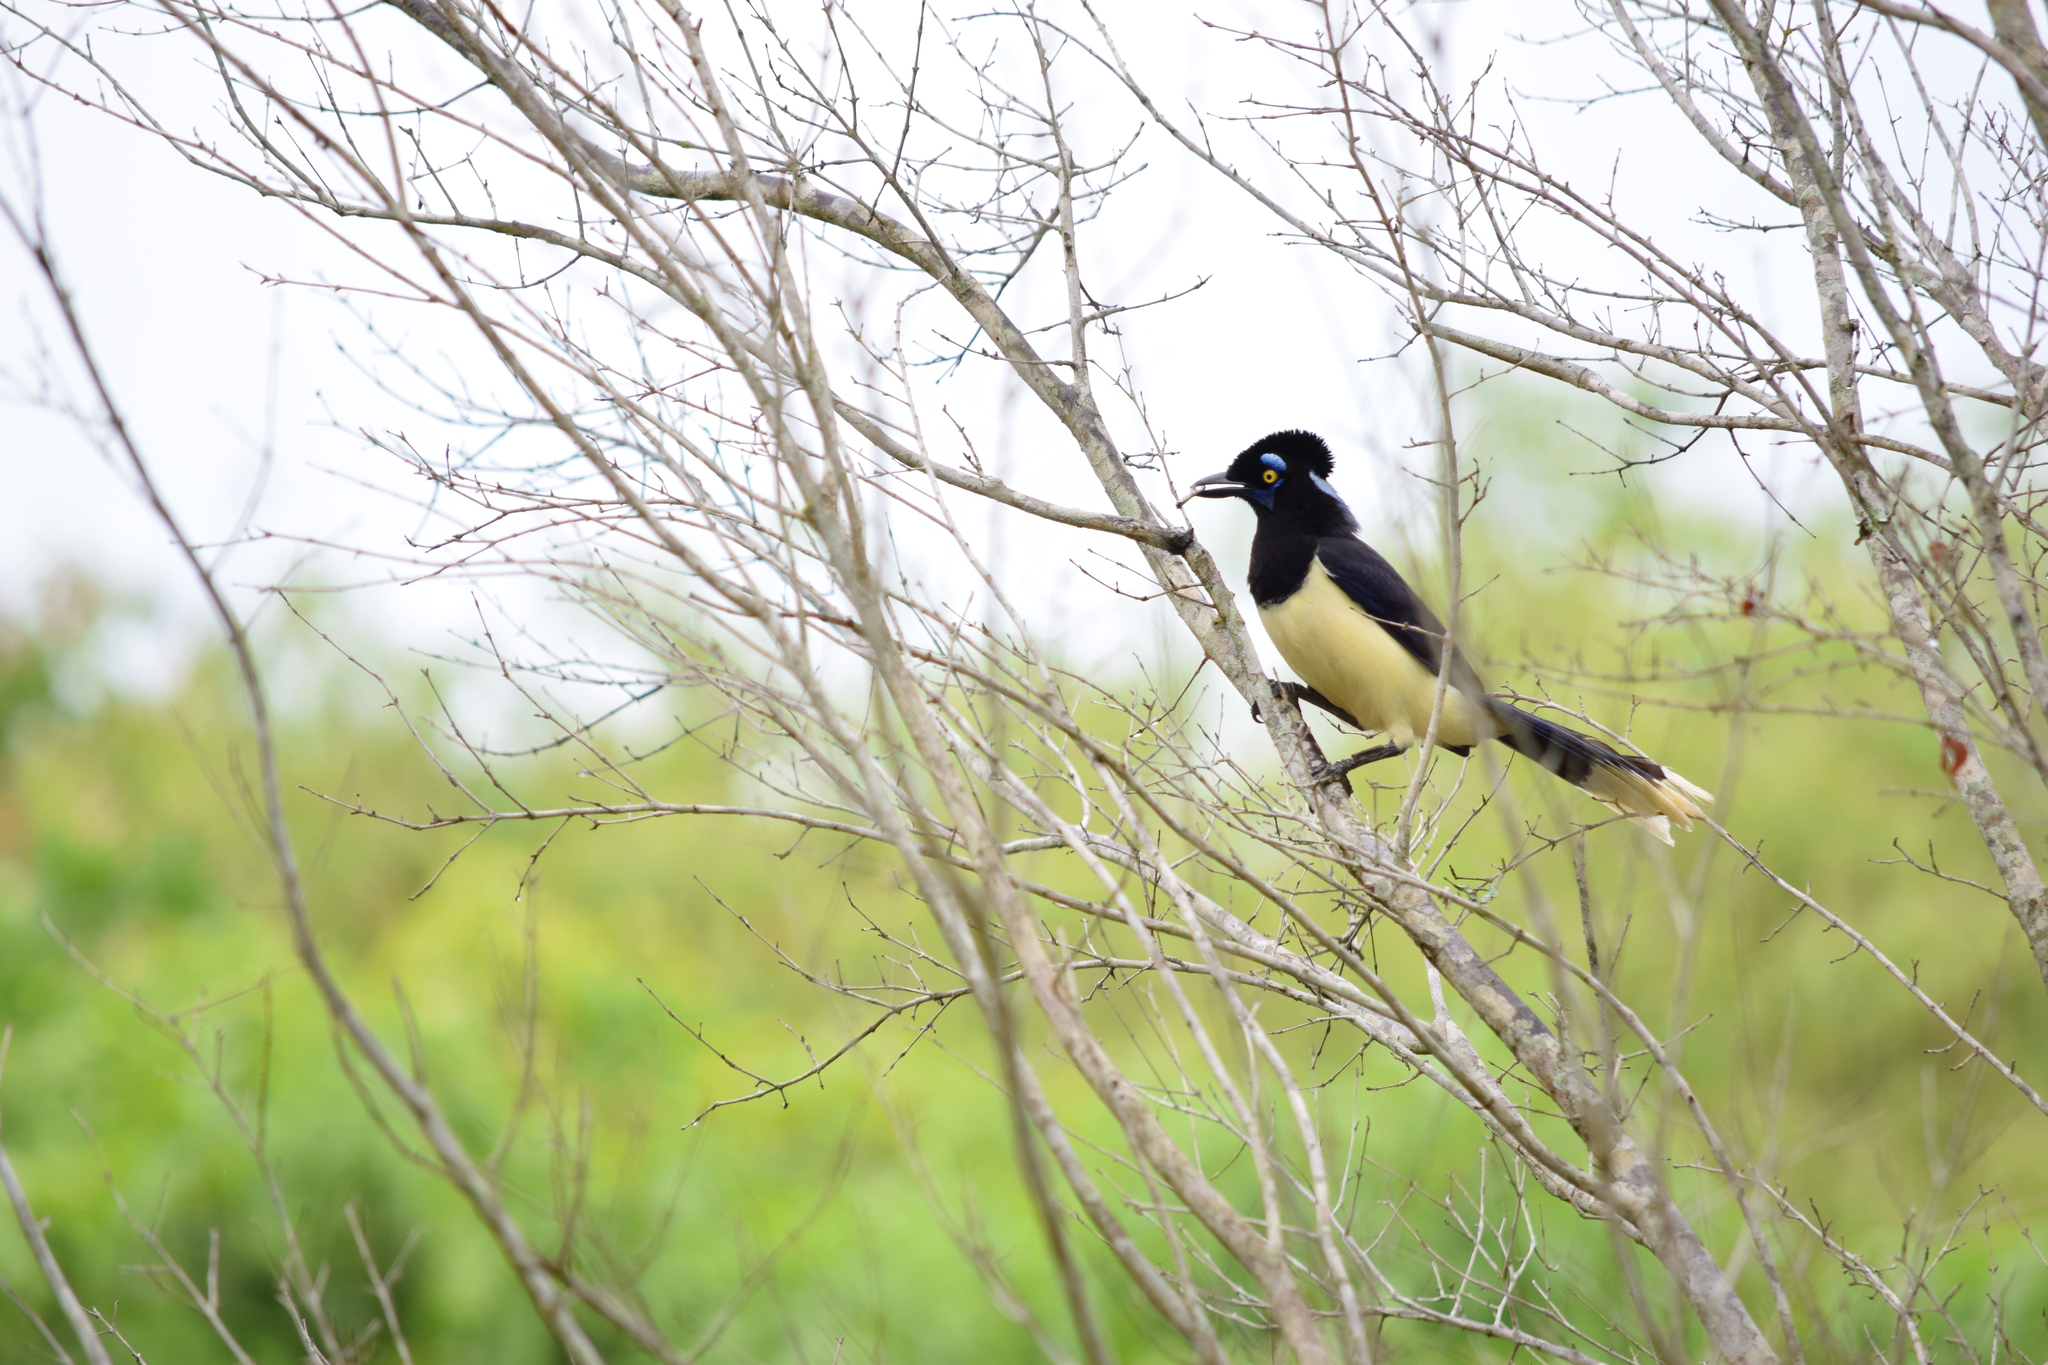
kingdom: Animalia
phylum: Chordata
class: Aves
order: Passeriformes
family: Corvidae
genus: Cyanocorax
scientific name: Cyanocorax chrysops
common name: Plush-crested jay
